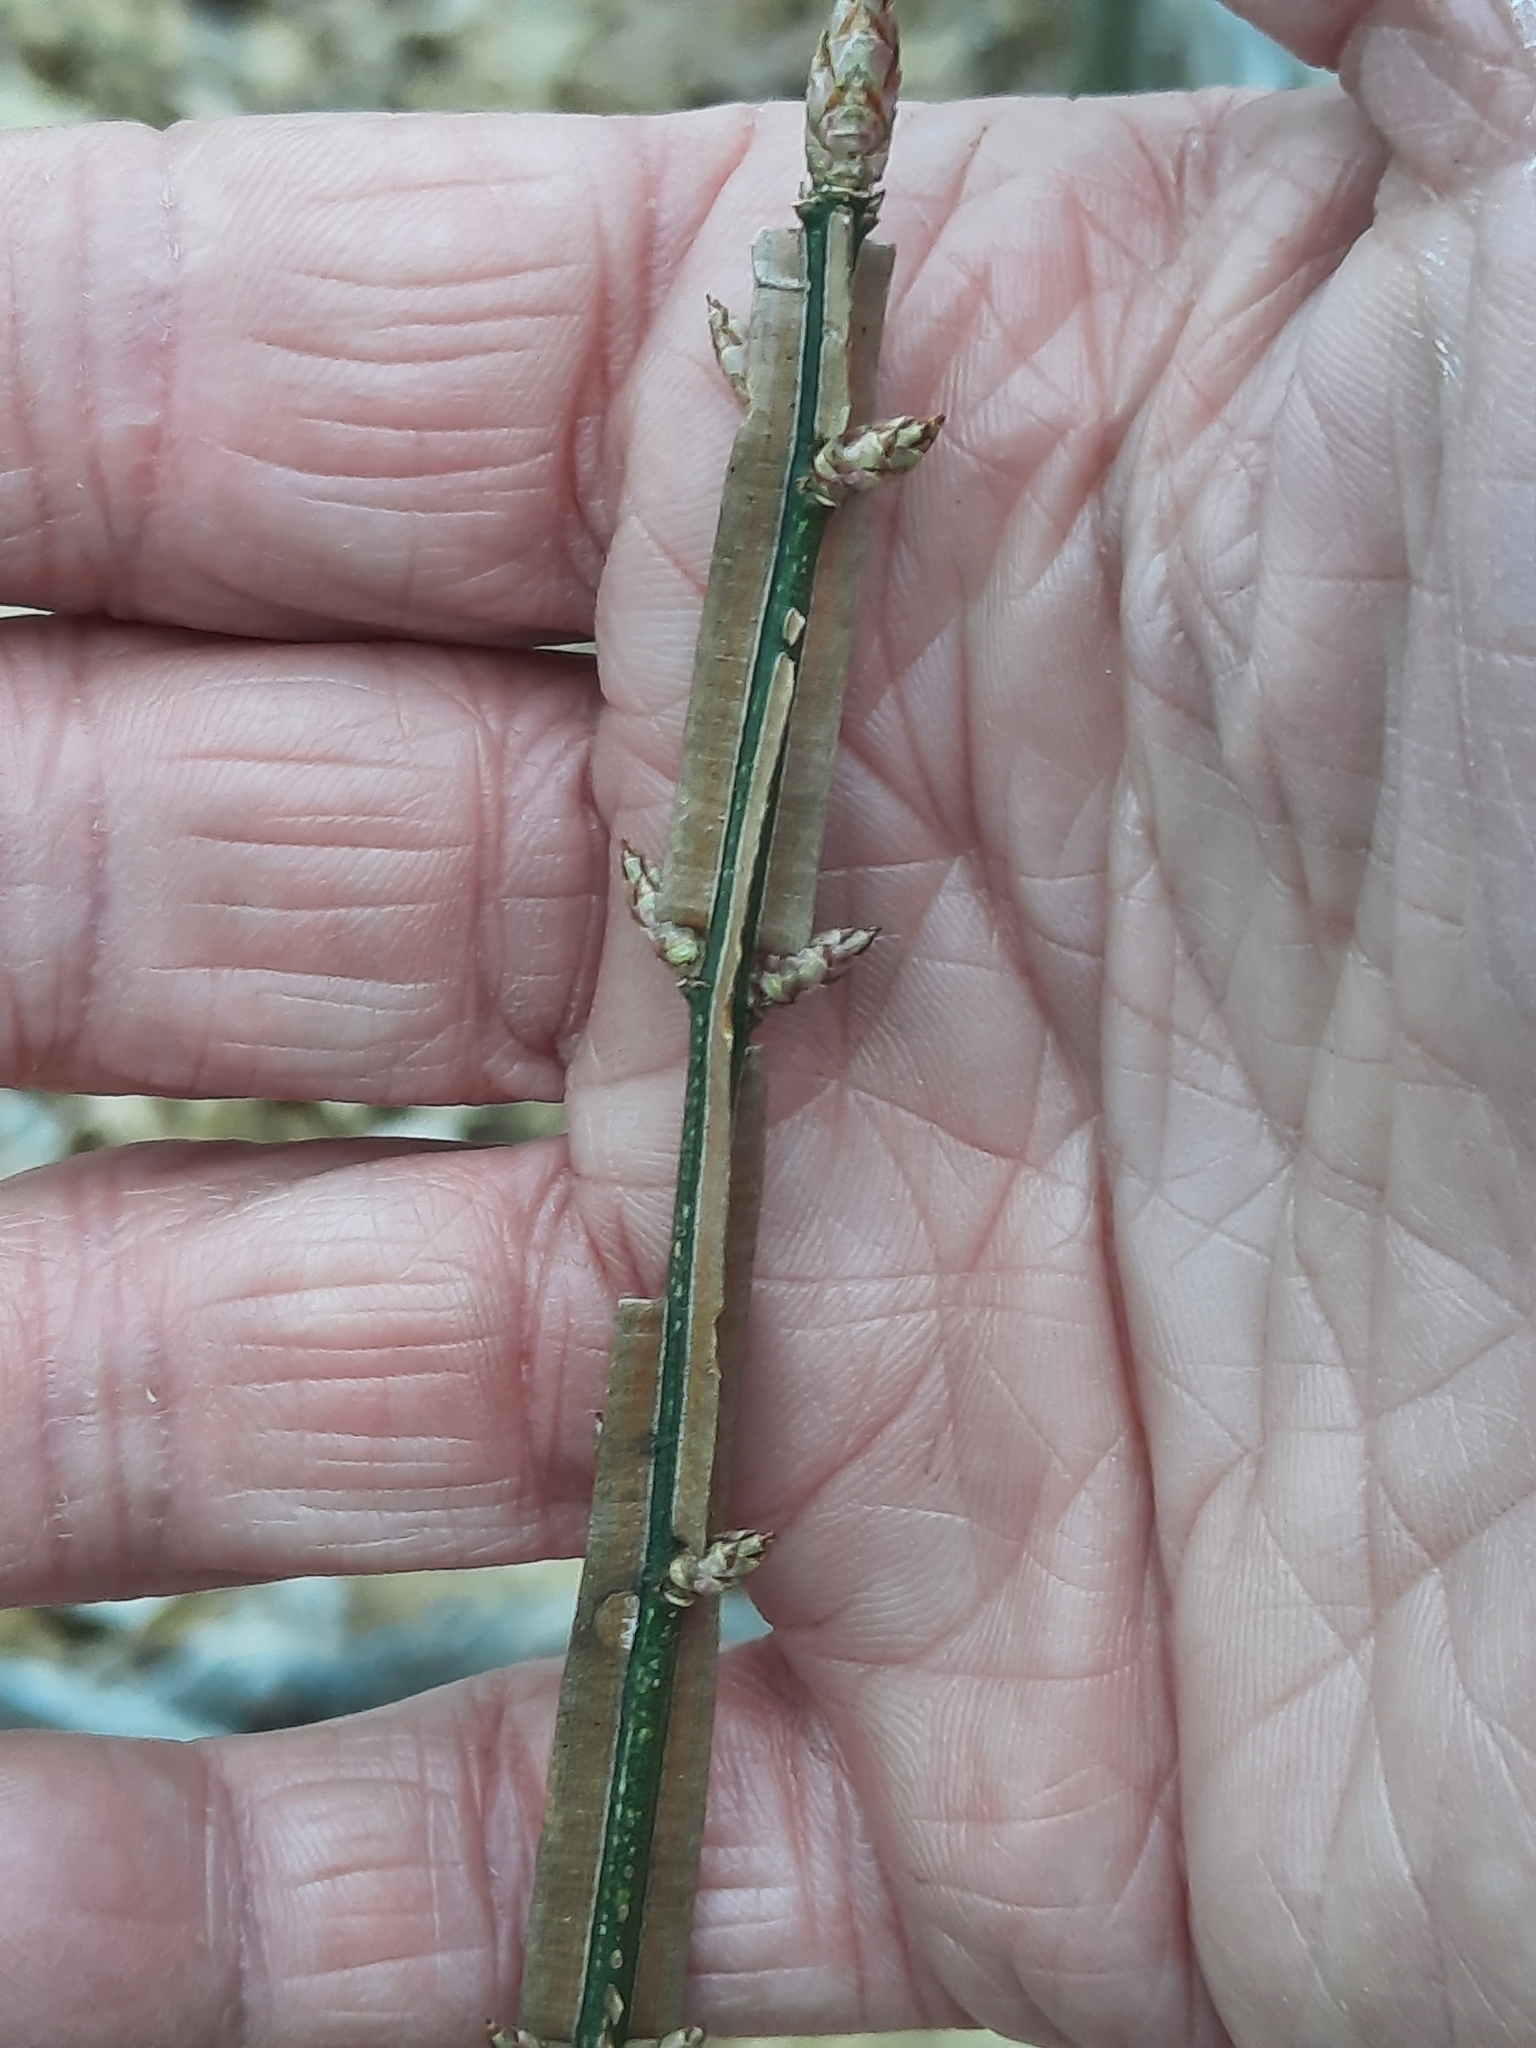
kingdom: Plantae
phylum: Tracheophyta
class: Magnoliopsida
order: Celastrales
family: Celastraceae
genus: Euonymus
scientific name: Euonymus alatus
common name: Winged euonymus
